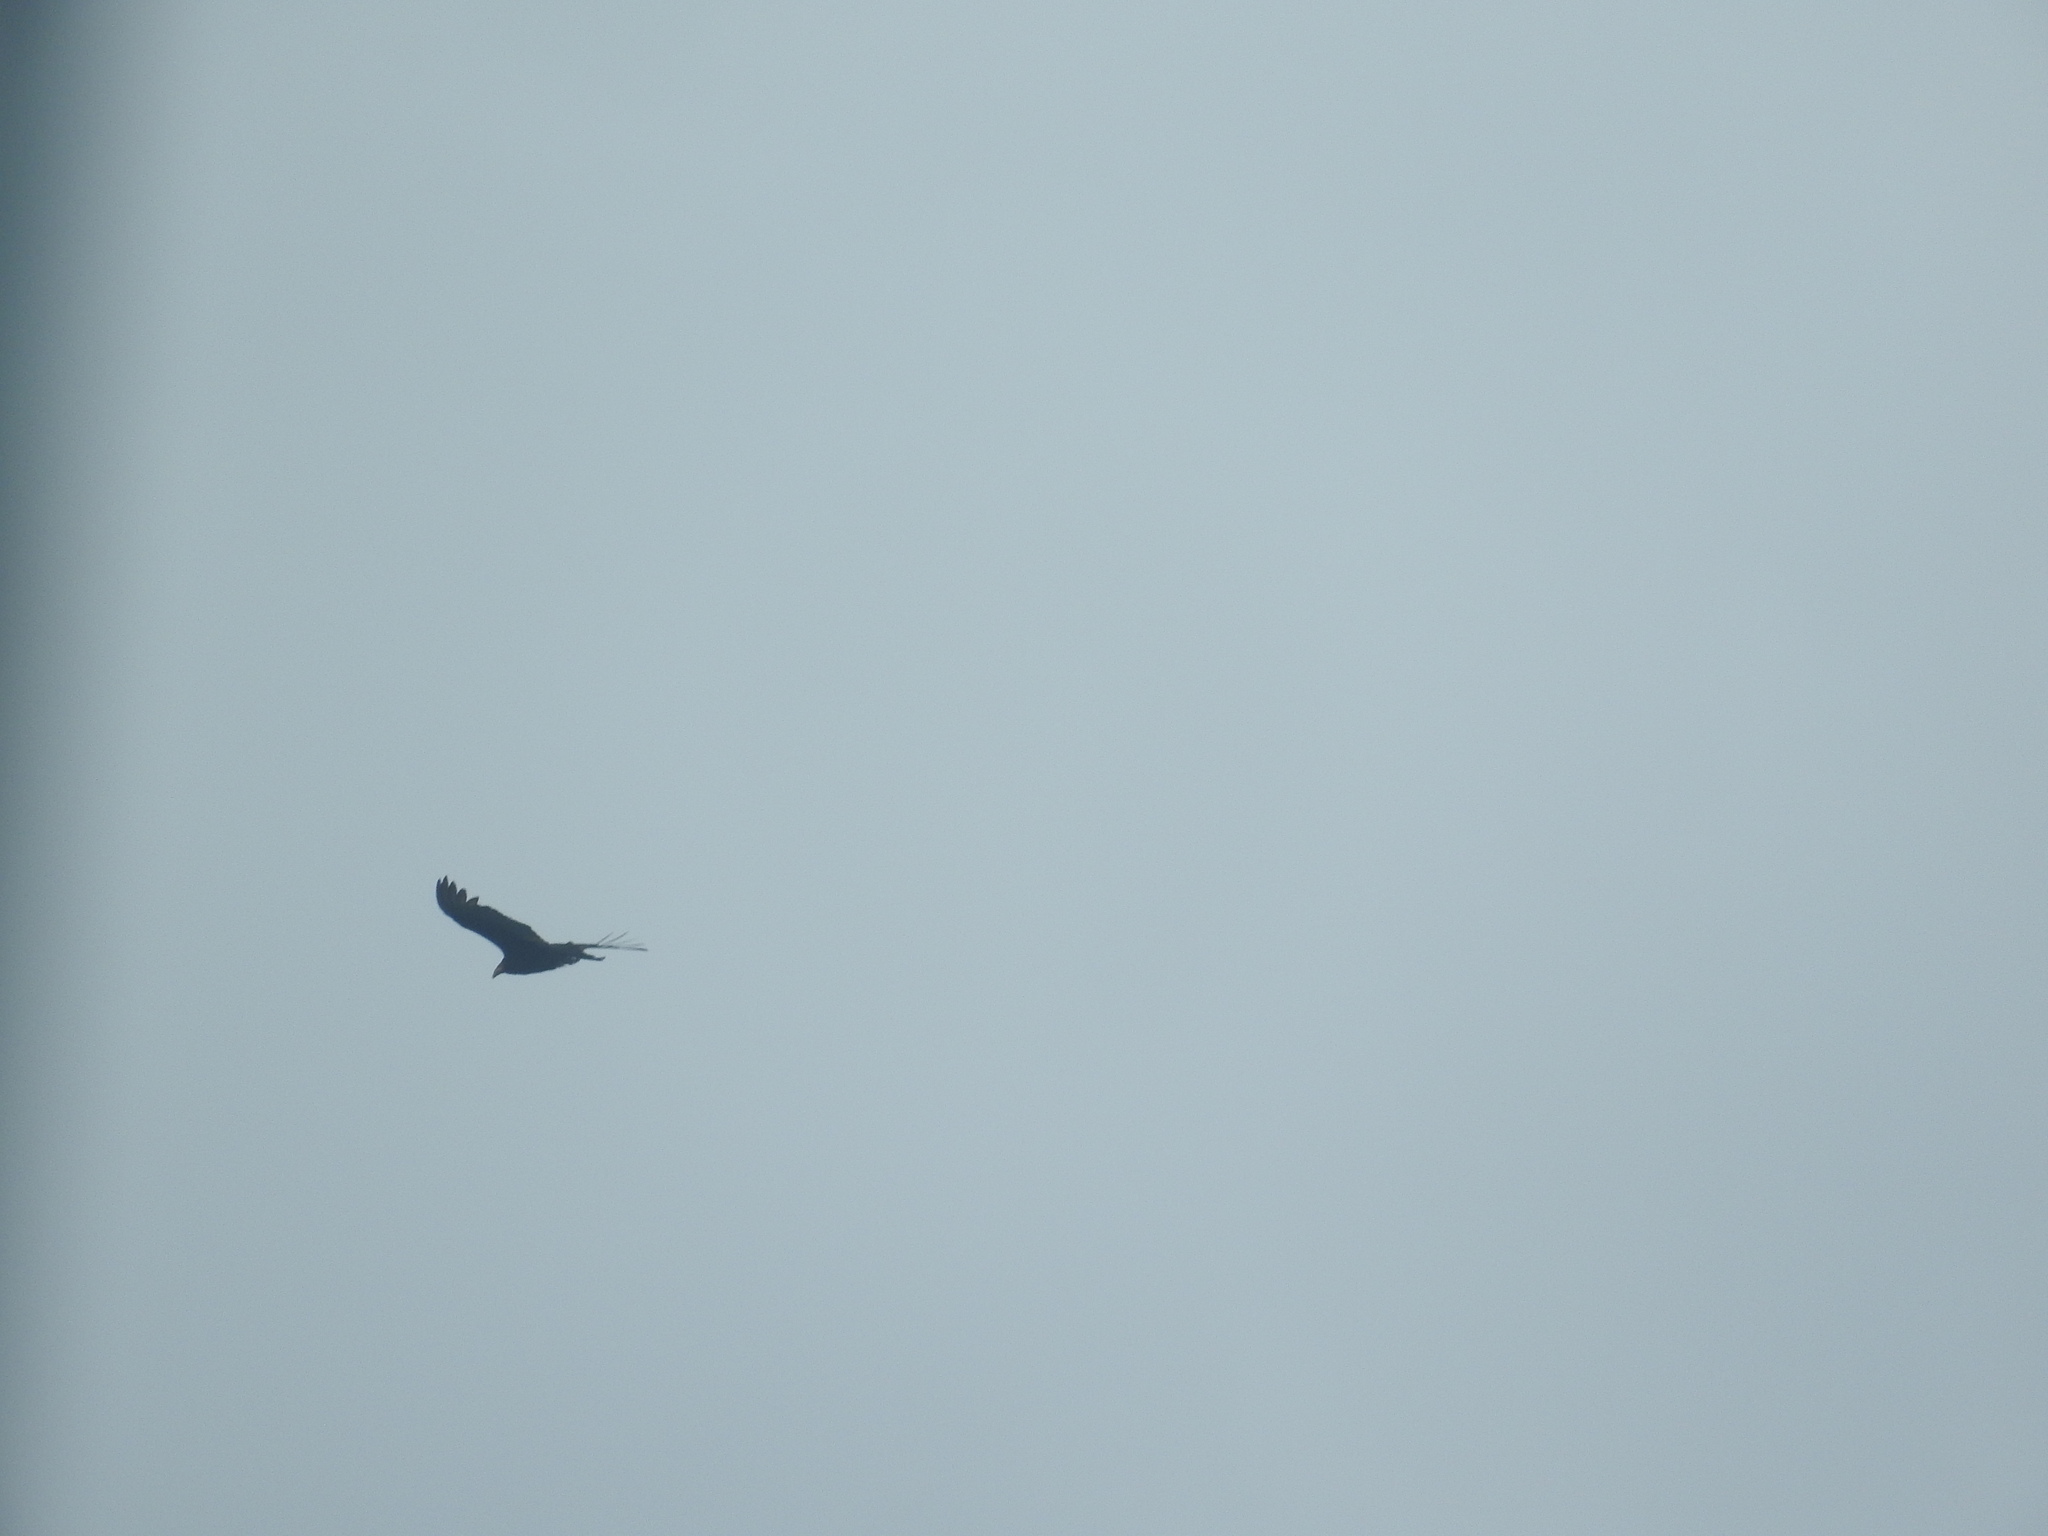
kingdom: Animalia
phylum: Chordata
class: Aves
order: Accipitriformes
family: Cathartidae
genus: Cathartes
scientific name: Cathartes burrovianus
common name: Lesser yellow-headed vulture
